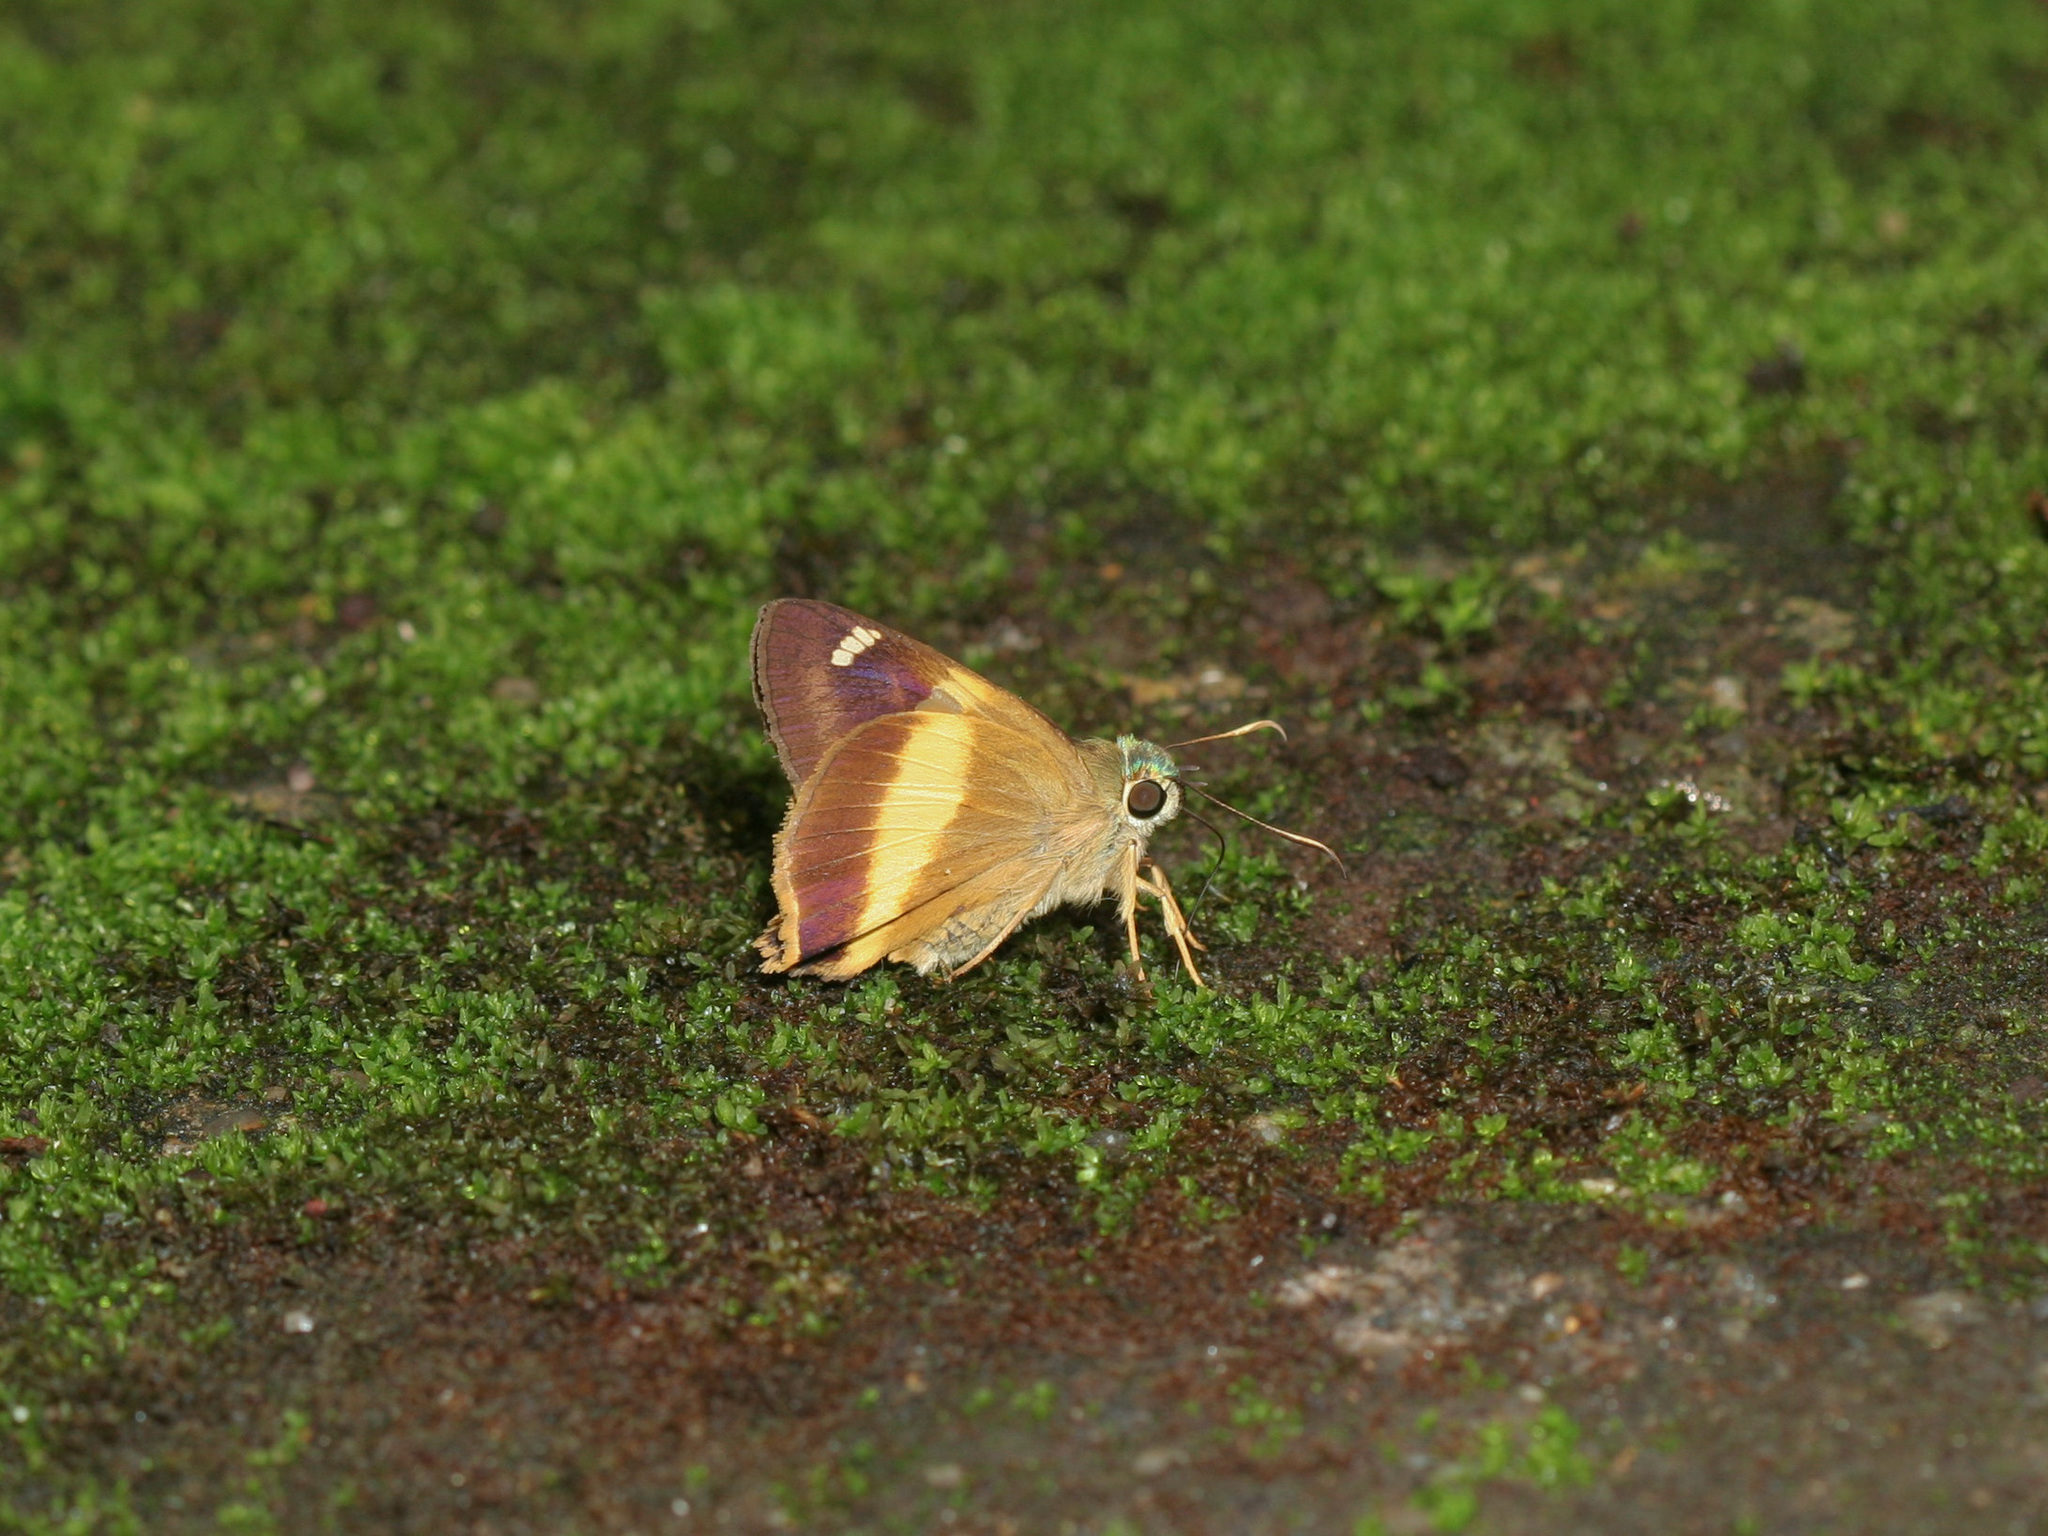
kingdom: Animalia
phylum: Arthropoda
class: Insecta
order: Lepidoptera
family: Hesperiidae
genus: Hasora
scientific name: Hasora schoenherr
